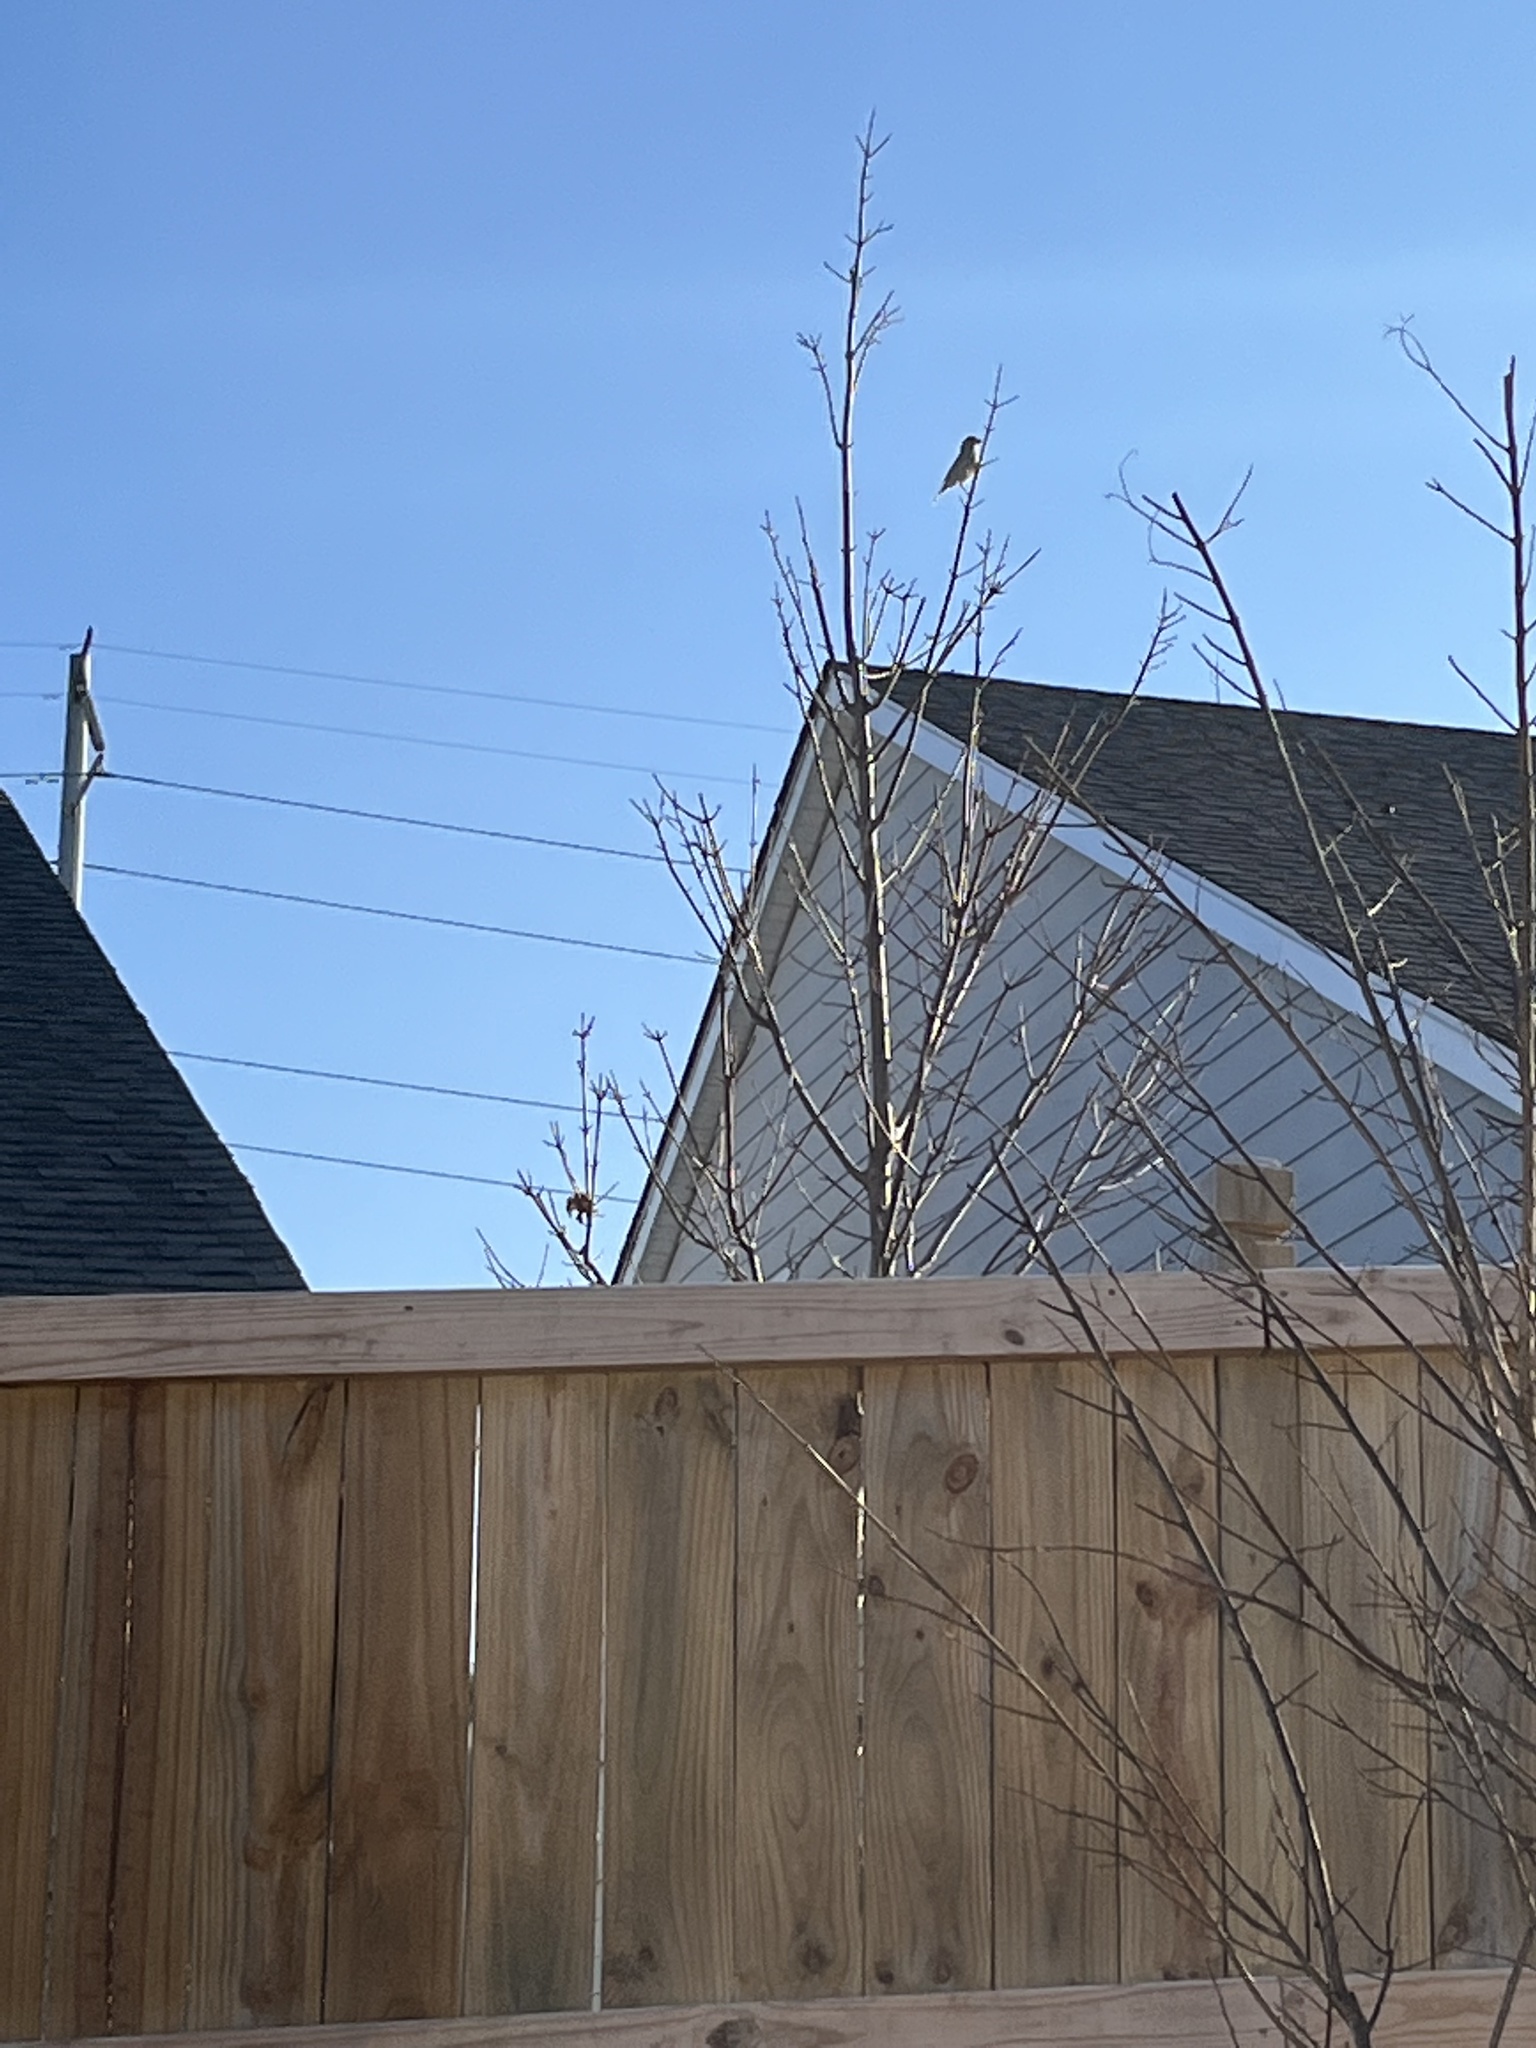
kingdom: Animalia
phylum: Chordata
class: Aves
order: Passeriformes
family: Fringillidae
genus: Haemorhous
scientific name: Haemorhous mexicanus
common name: House finch
